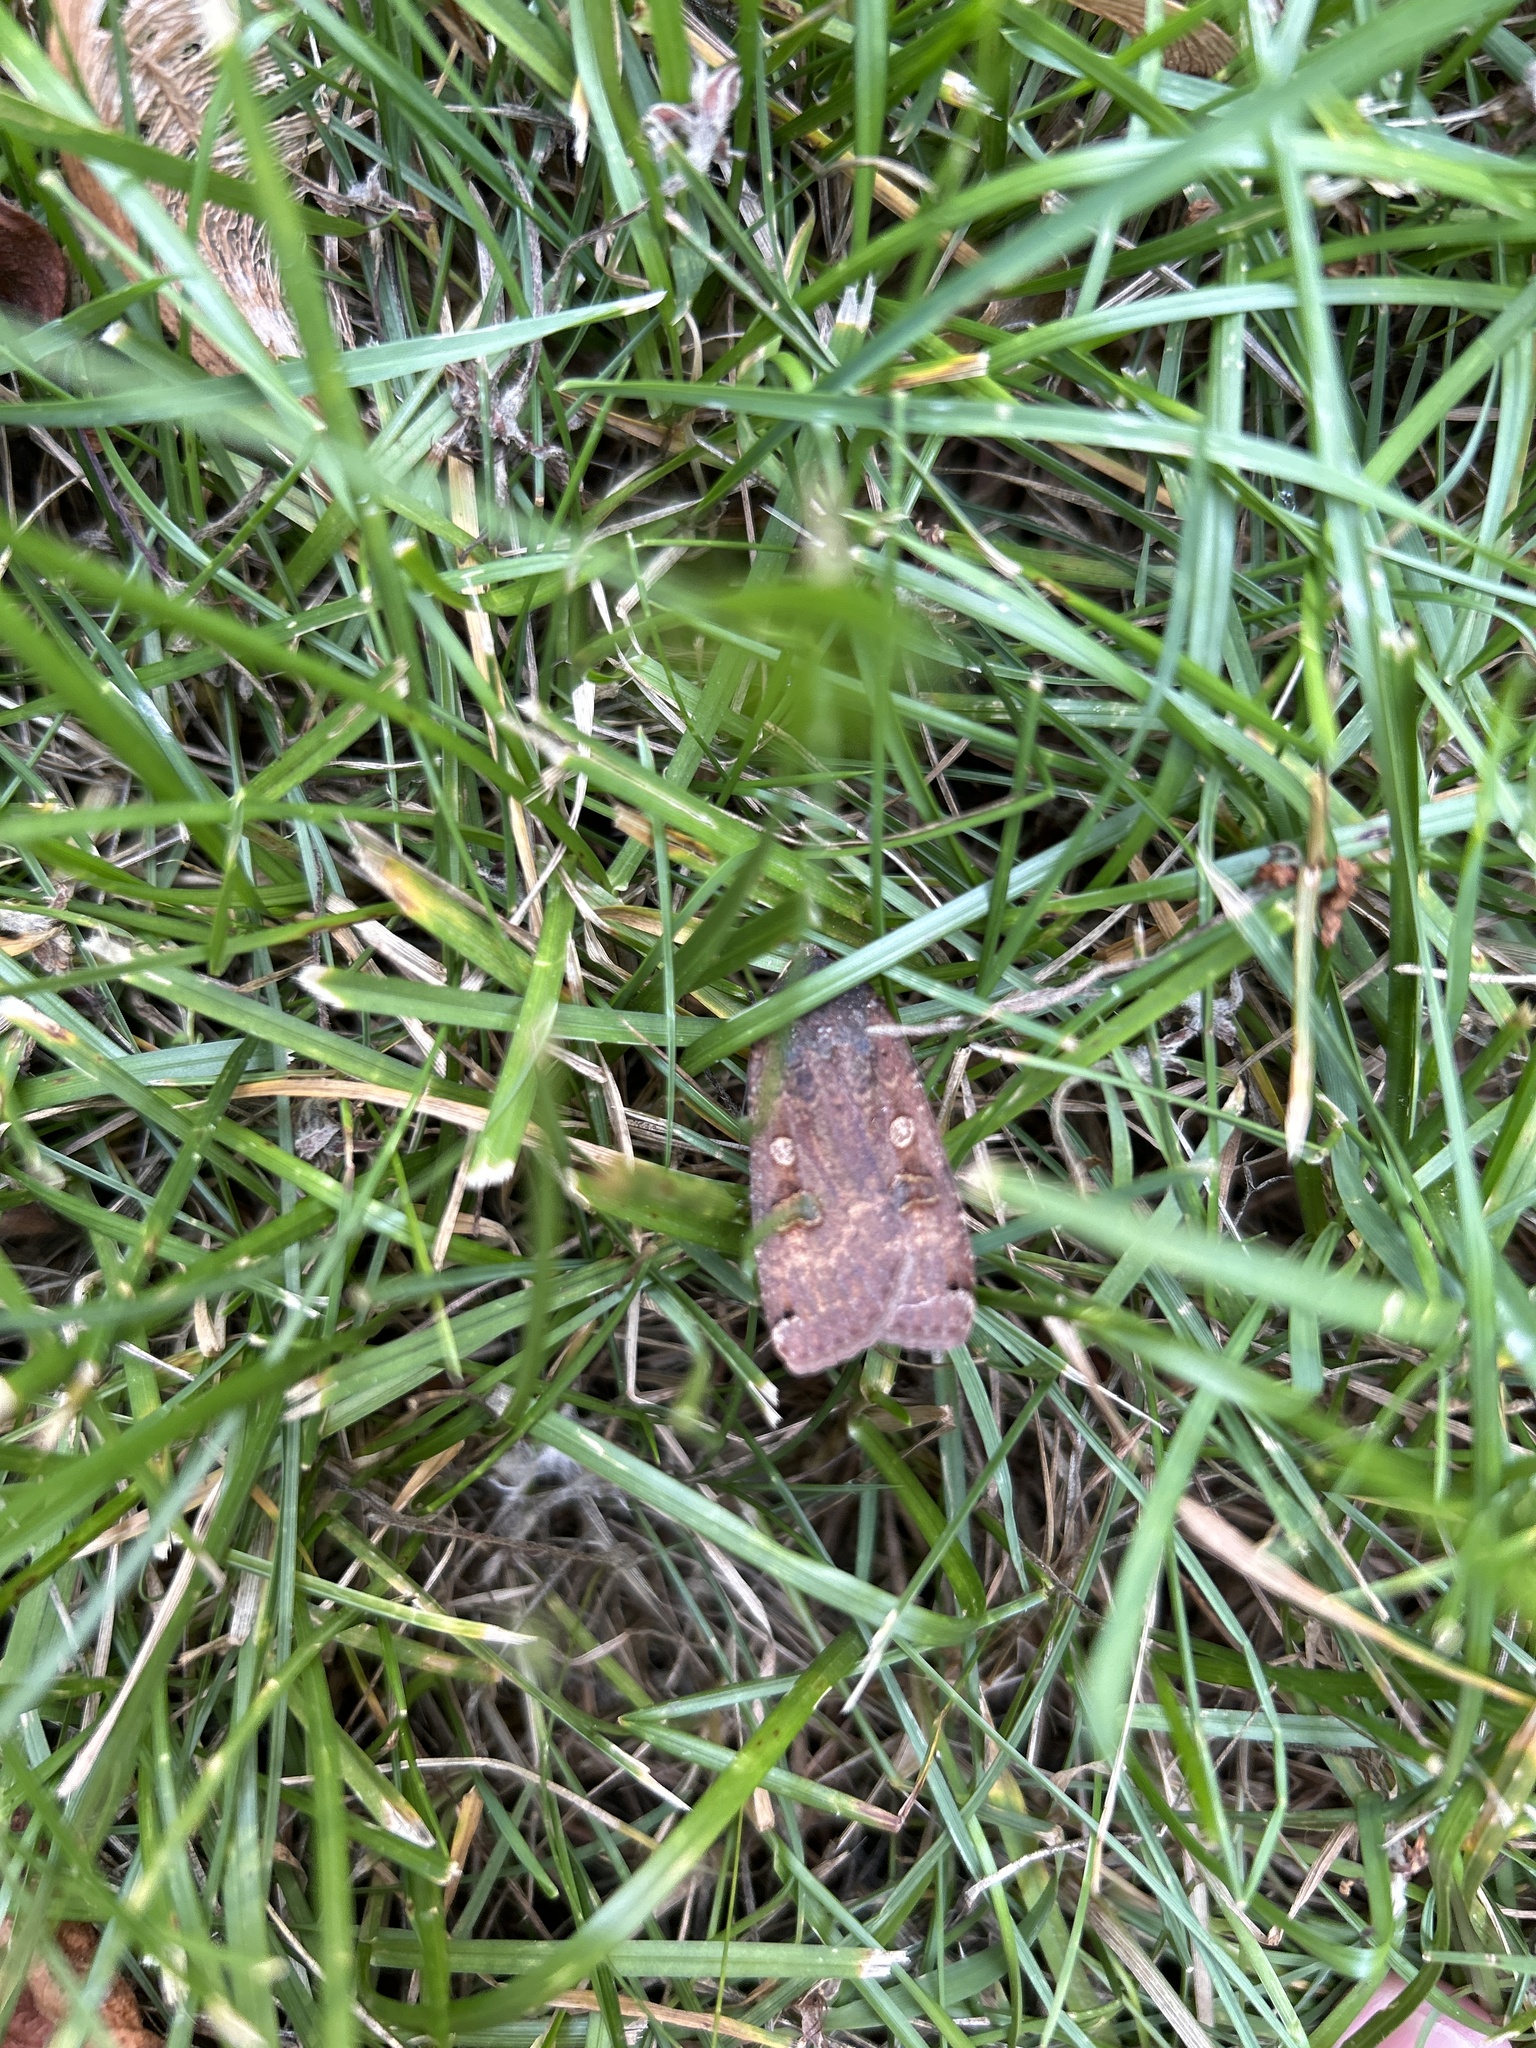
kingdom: Animalia
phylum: Arthropoda
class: Insecta
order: Lepidoptera
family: Noctuidae
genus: Noctua
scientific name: Noctua pronuba
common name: Large yellow underwing
